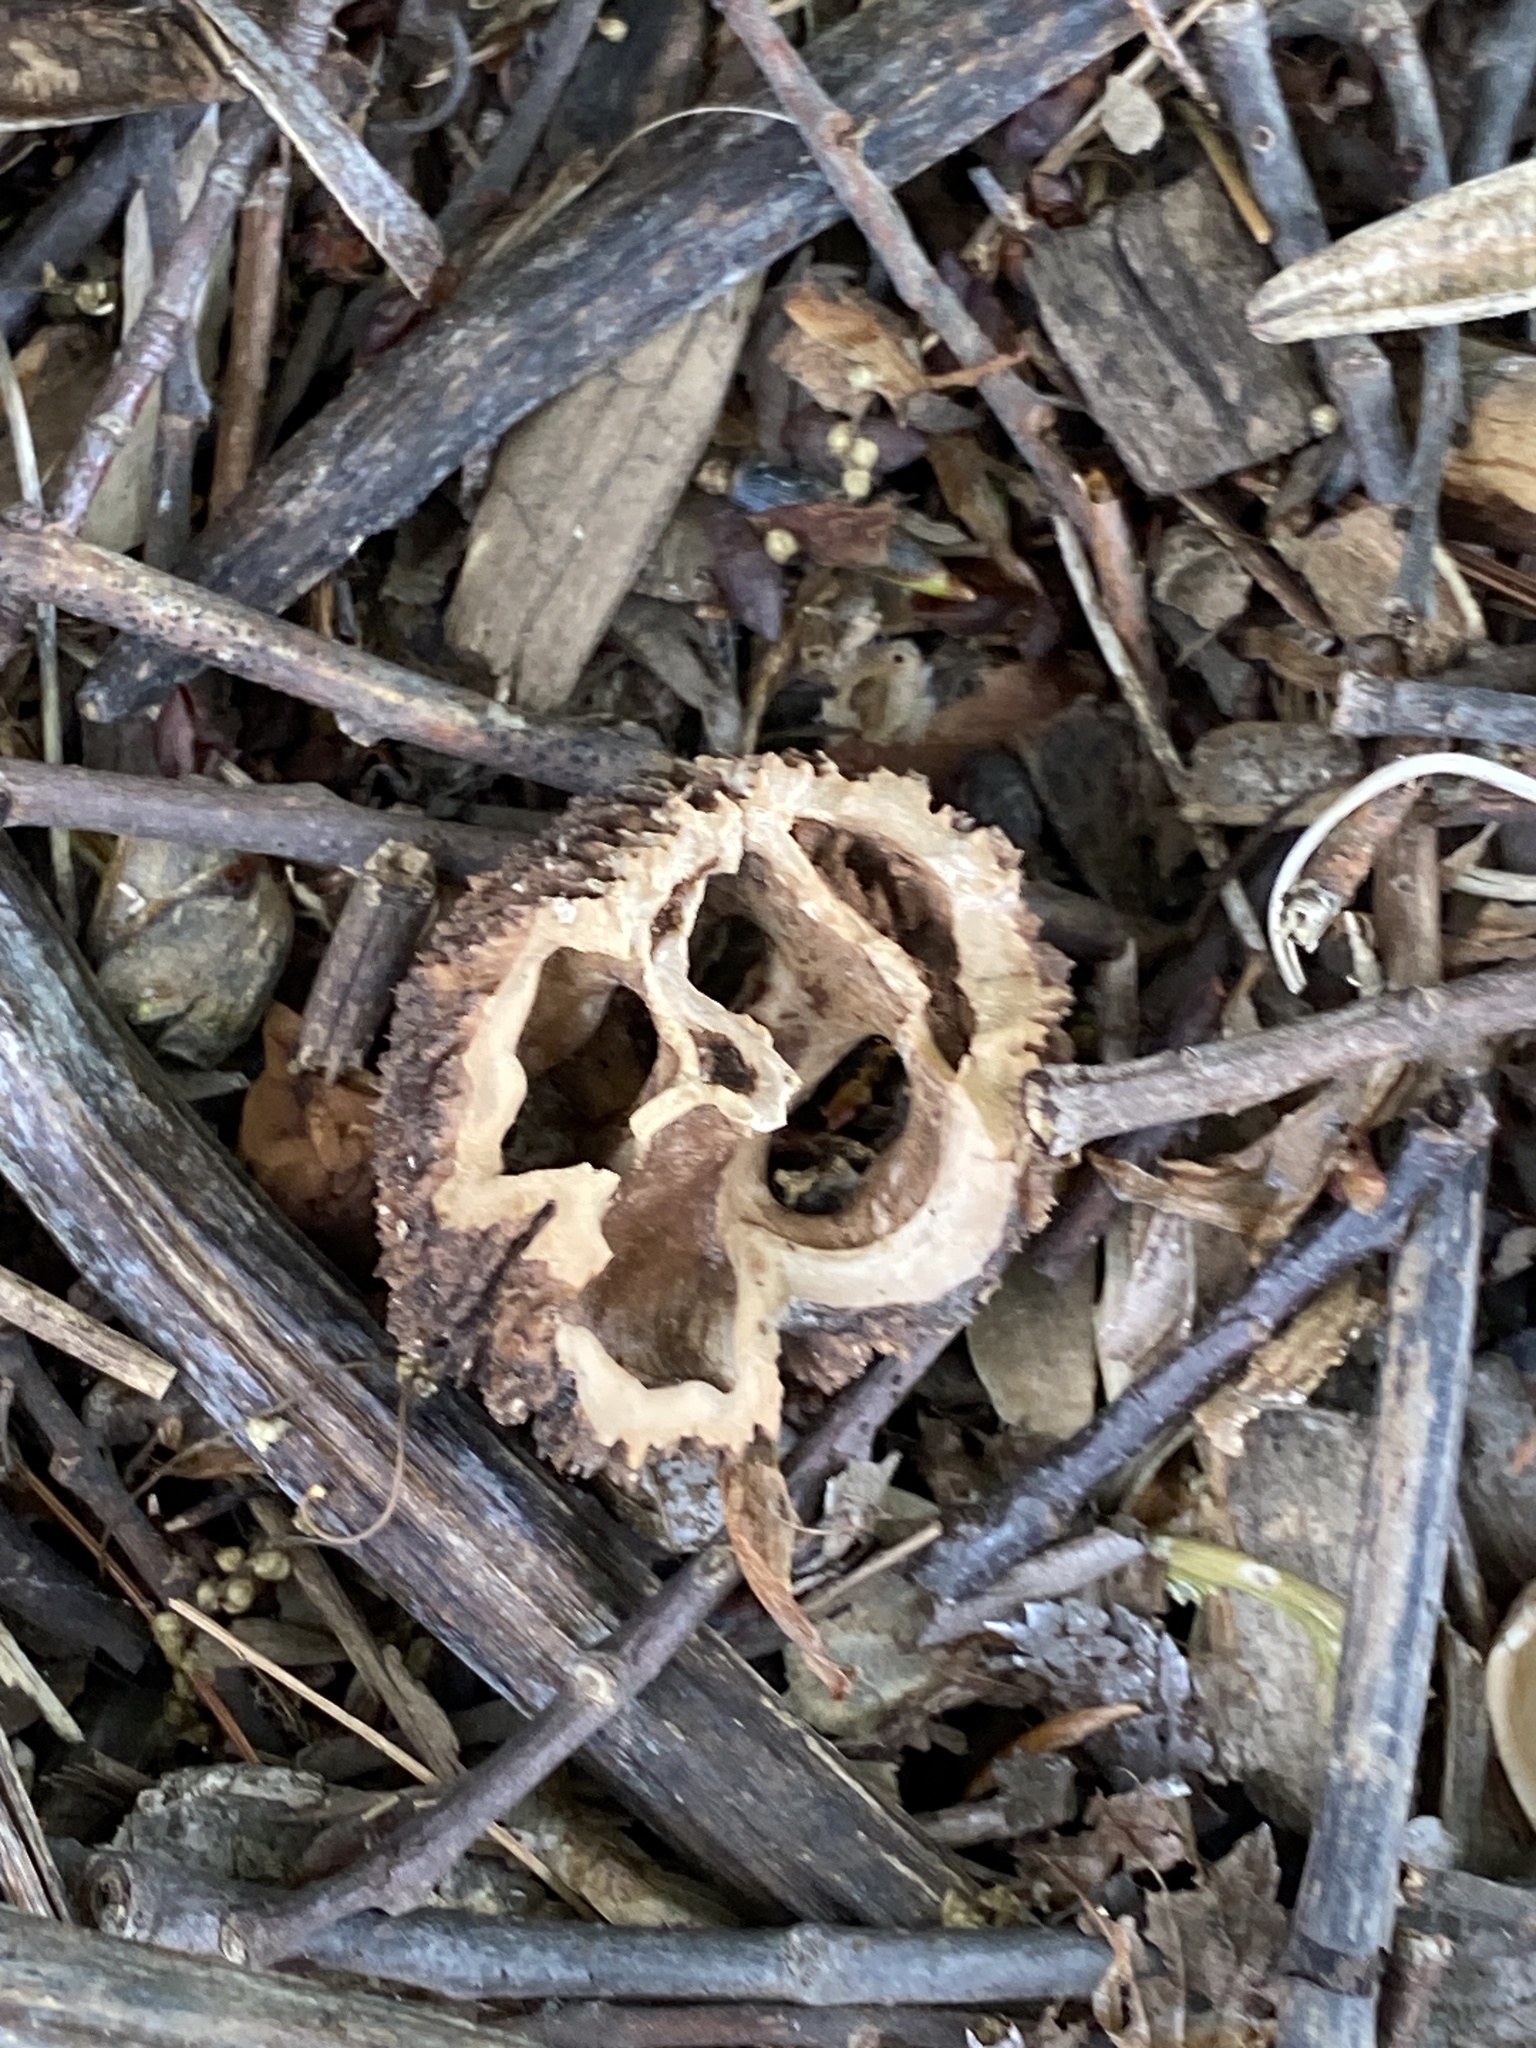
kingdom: Plantae
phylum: Tracheophyta
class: Magnoliopsida
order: Fagales
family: Juglandaceae
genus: Juglans
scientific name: Juglans nigra
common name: Black walnut
